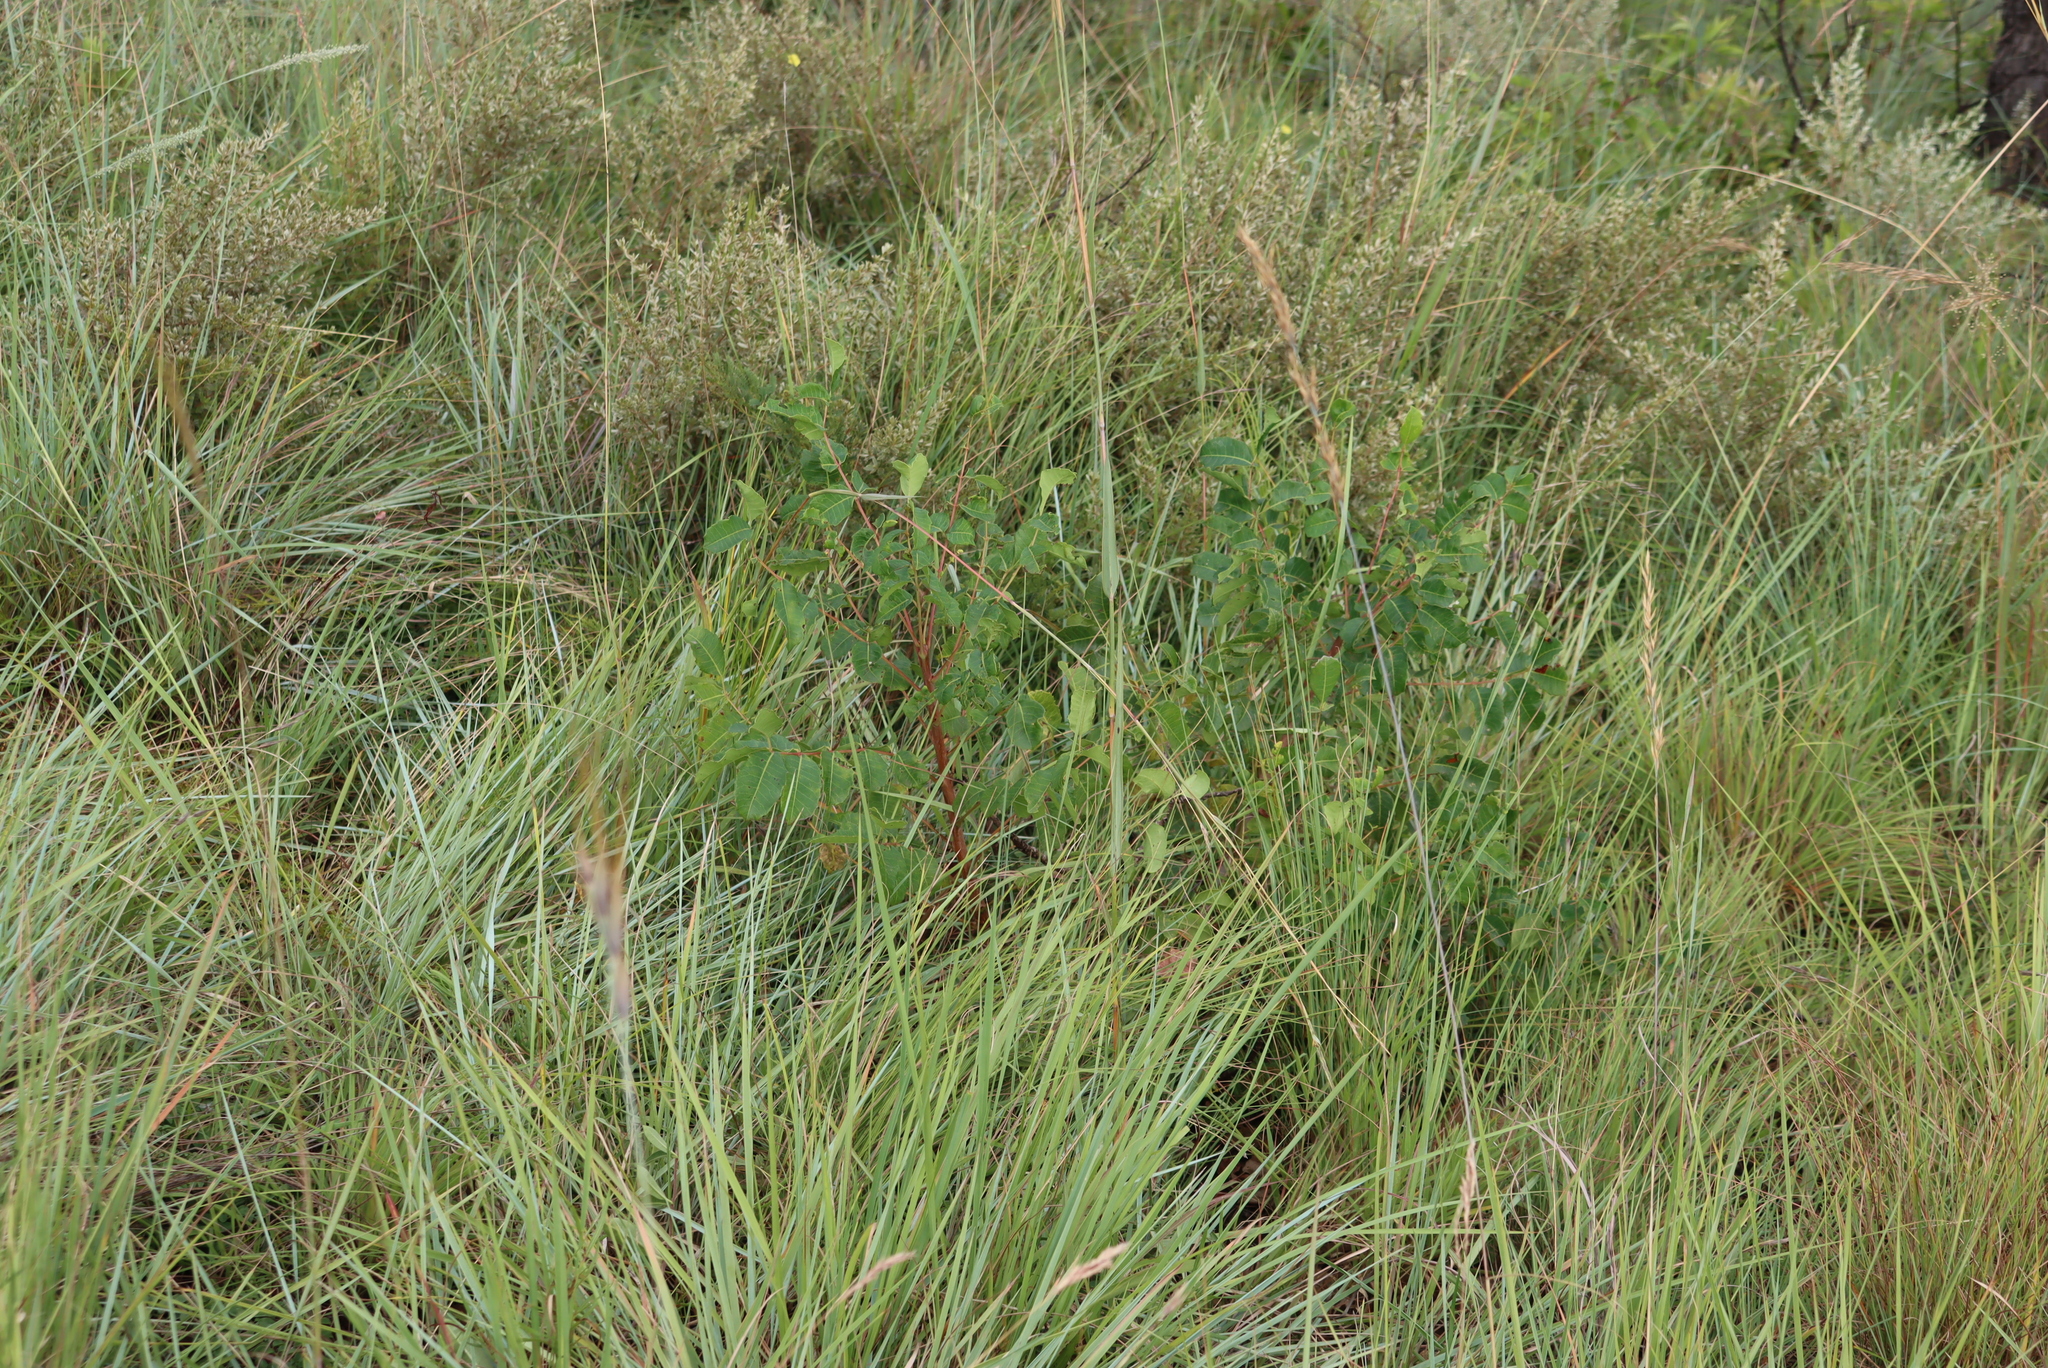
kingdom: Plantae
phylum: Tracheophyta
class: Magnoliopsida
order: Sapindales
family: Anacardiaceae
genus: Sclerocarya
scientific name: Sclerocarya birrea
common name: Marula
